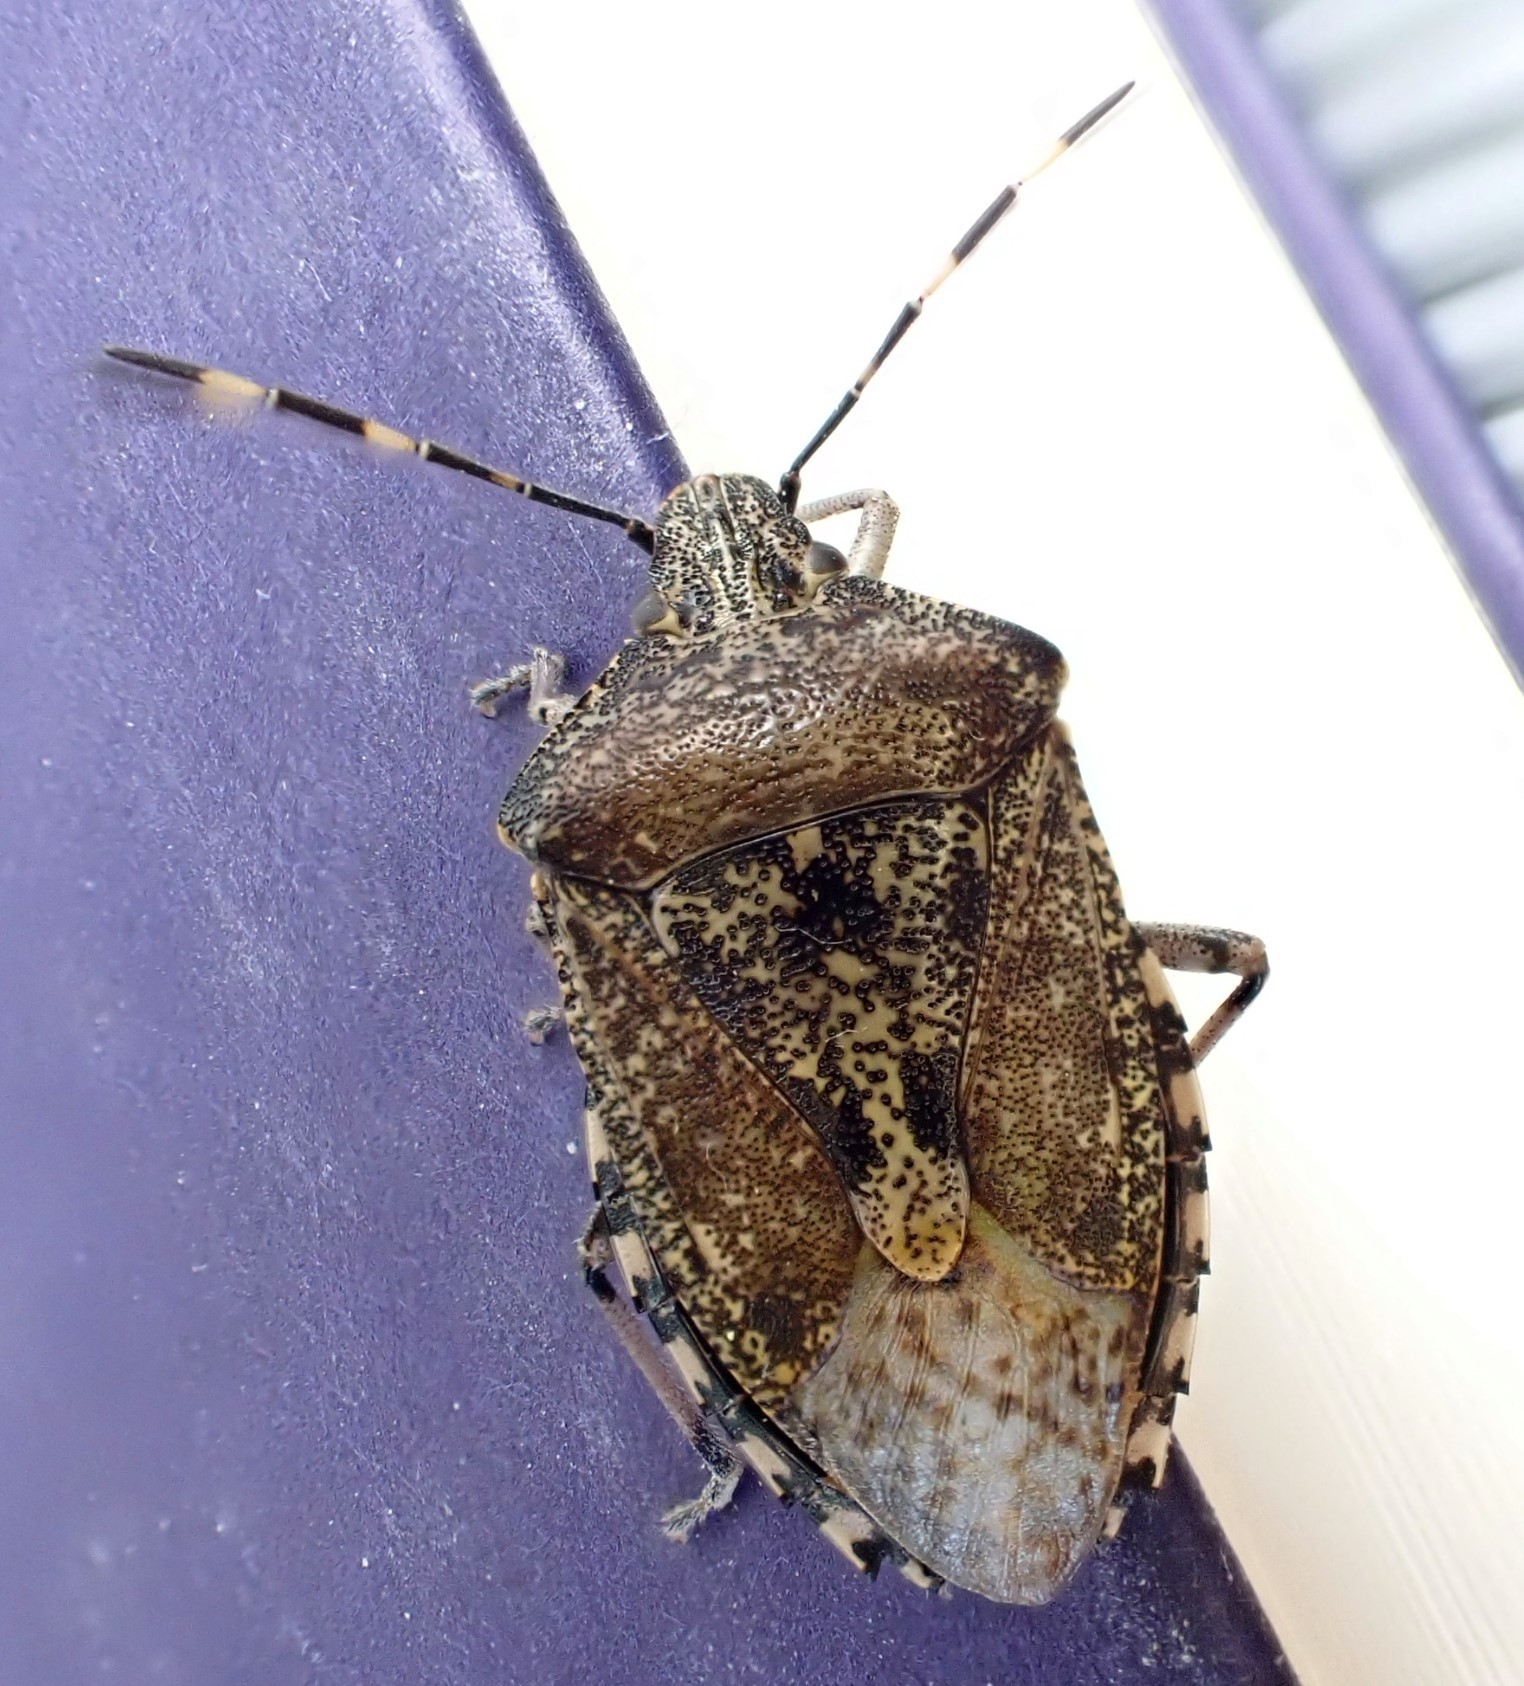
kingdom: Animalia
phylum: Arthropoda
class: Insecta
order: Hemiptera
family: Pentatomidae
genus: Rhaphigaster
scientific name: Rhaphigaster nebulosa
